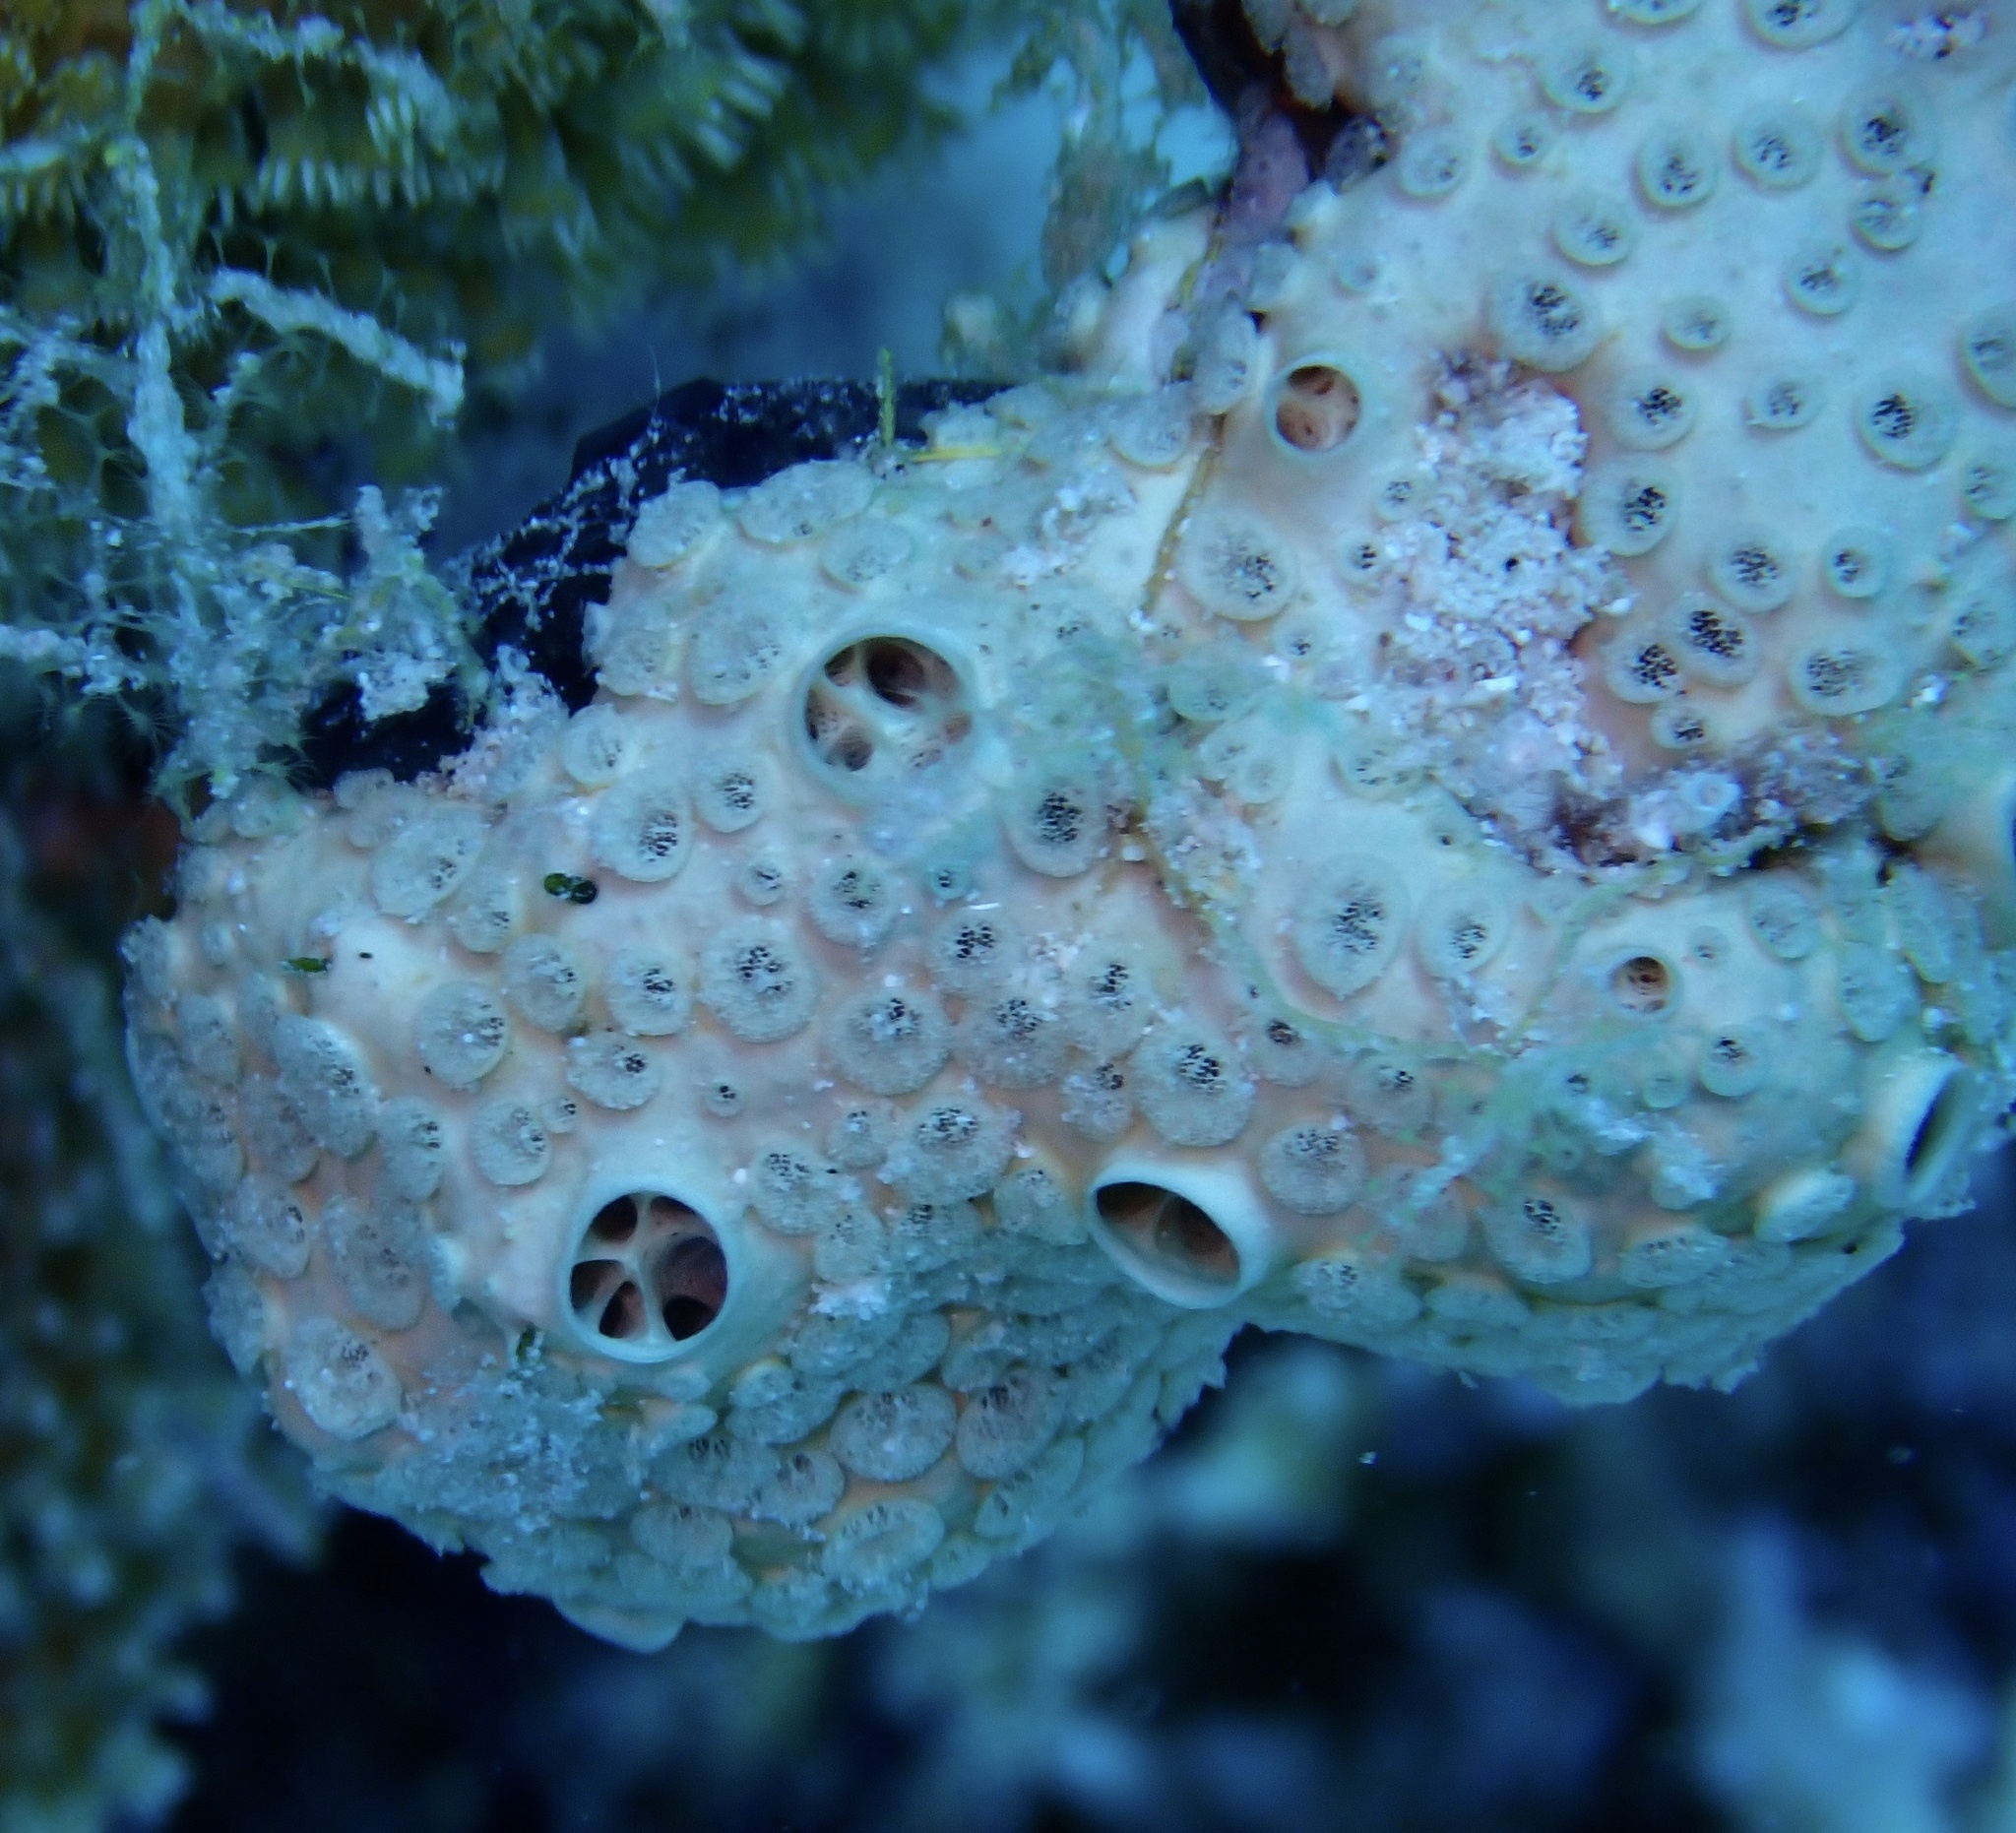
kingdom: Animalia
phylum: Porifera
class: Demospongiae
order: Poecilosclerida
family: Crellidae
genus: Crella
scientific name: Crella cyathophora
